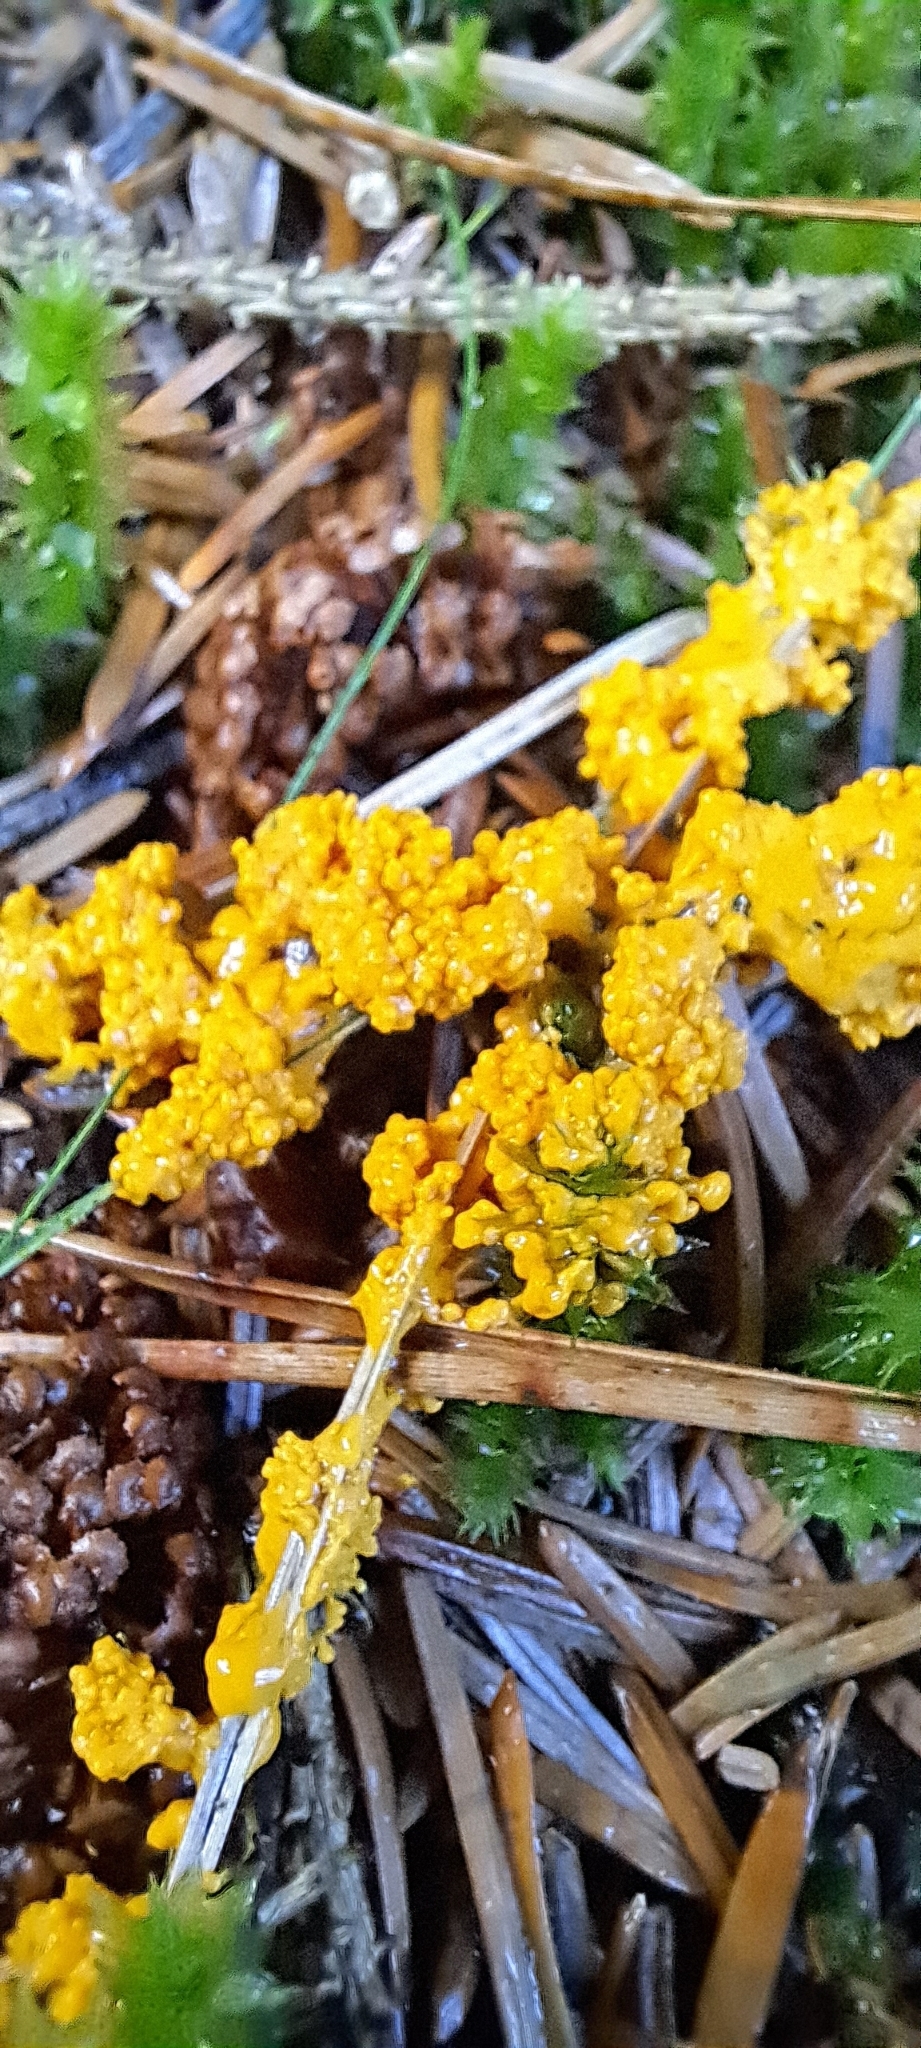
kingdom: Protozoa
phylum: Mycetozoa
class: Myxomycetes
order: Physarales
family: Physaraceae
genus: Fuligo
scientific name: Fuligo septica
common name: Dog vomit slime mold
